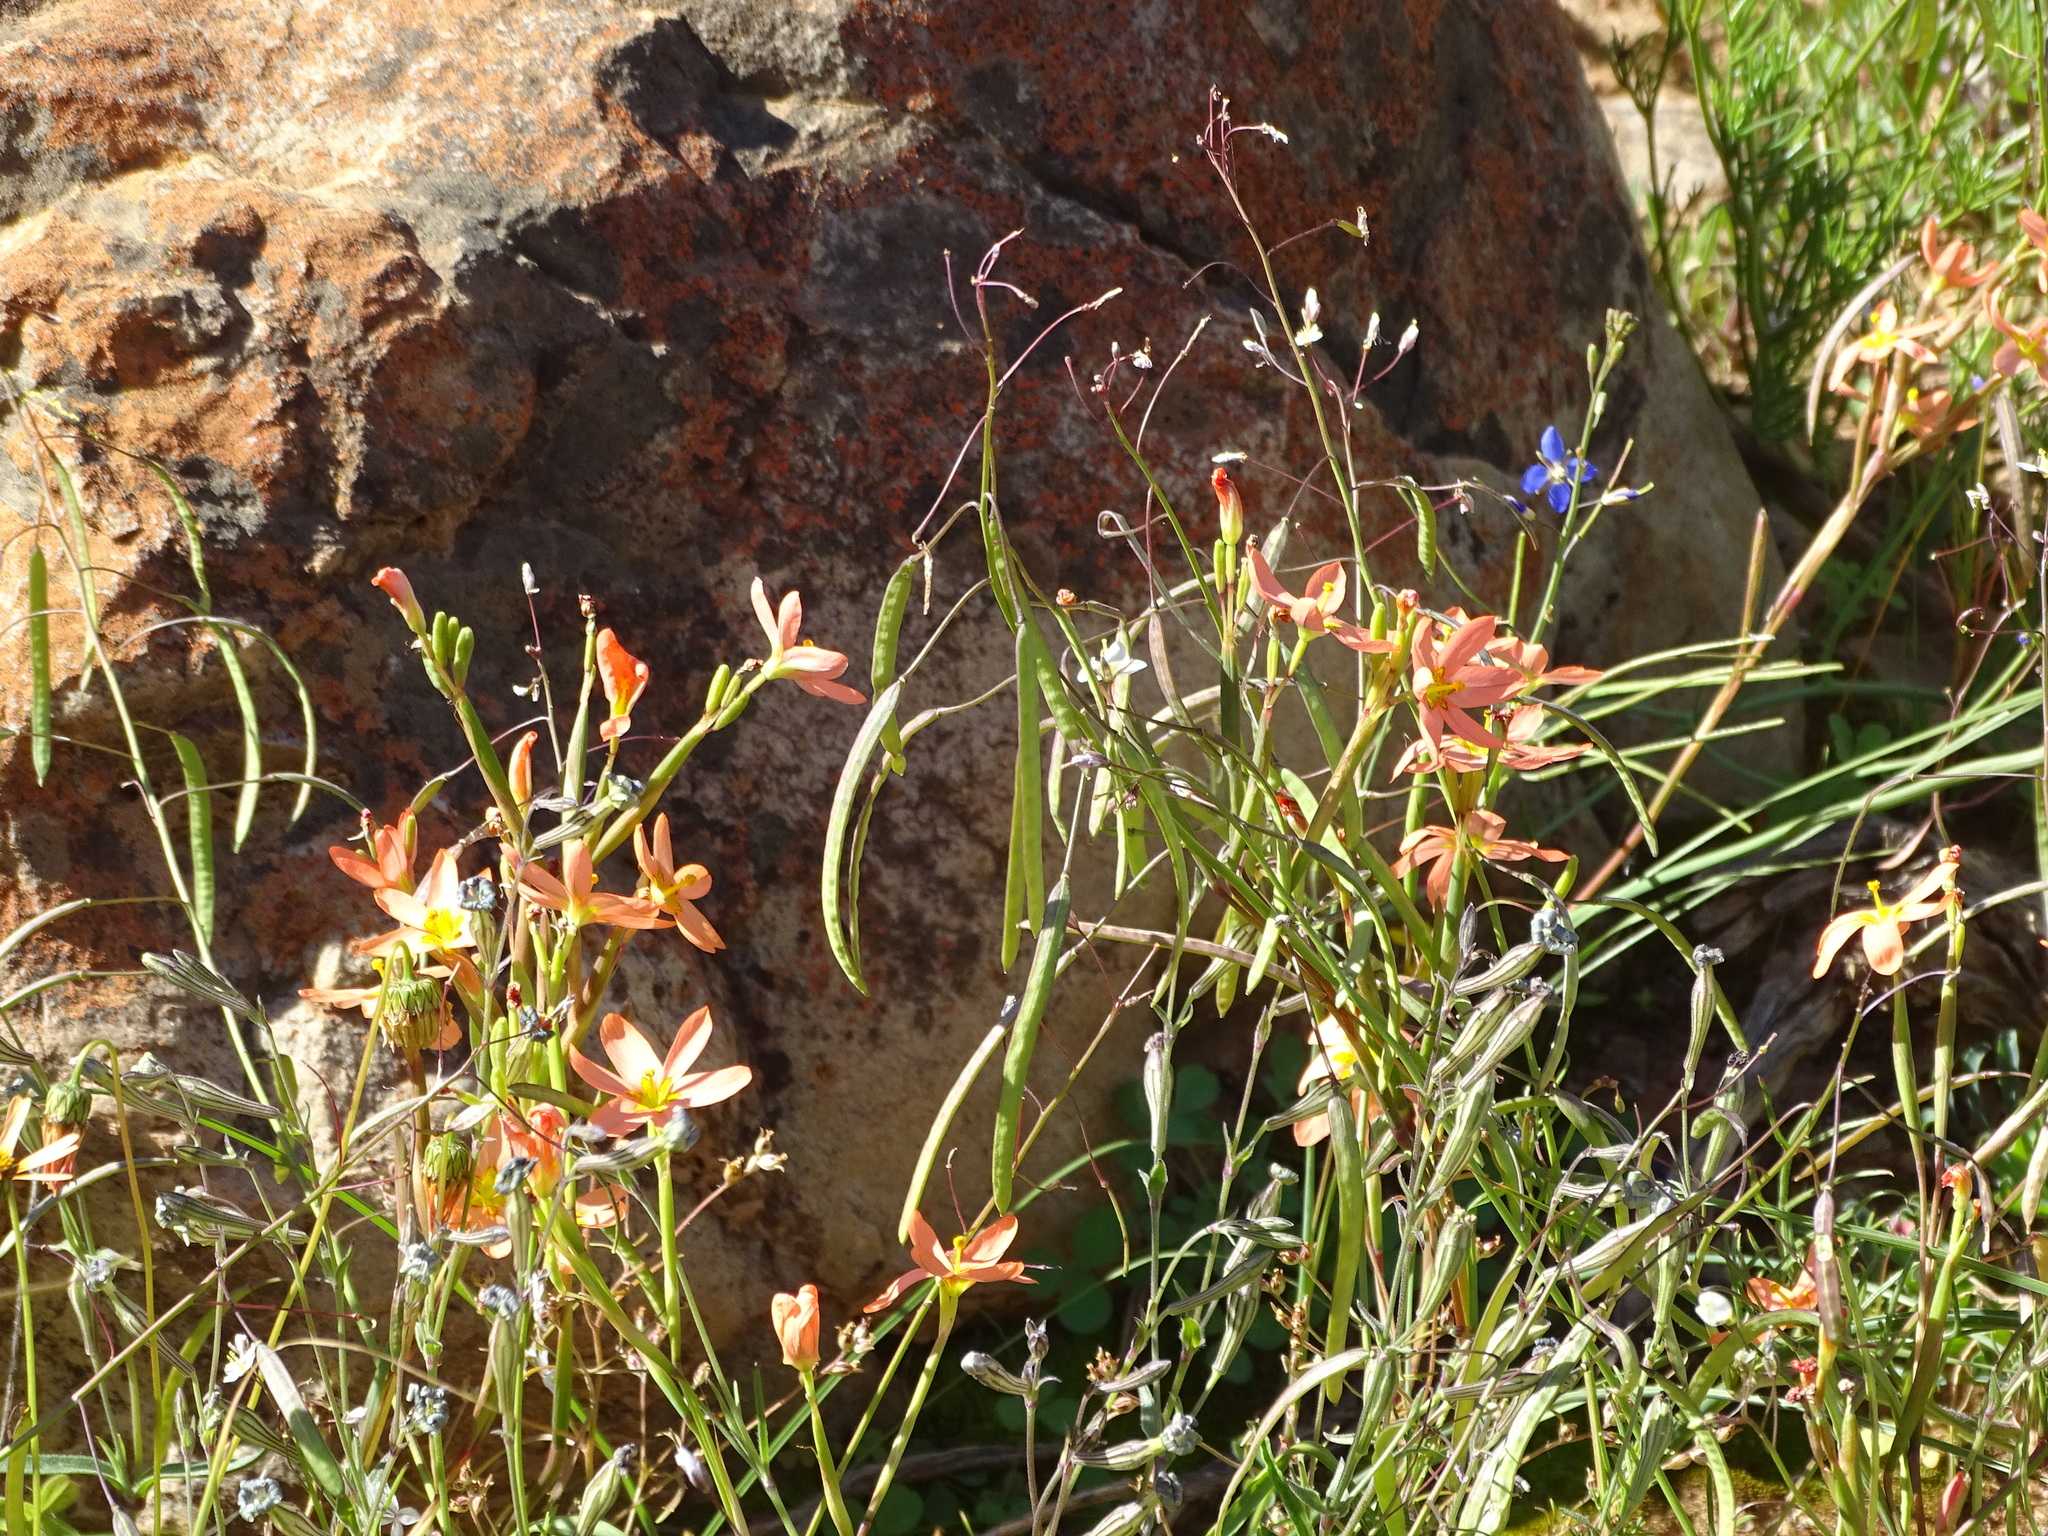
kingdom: Plantae
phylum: Tracheophyta
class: Liliopsida
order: Asparagales
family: Iridaceae
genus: Moraea
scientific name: Moraea miniata
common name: Two-leaf cape-tulip
